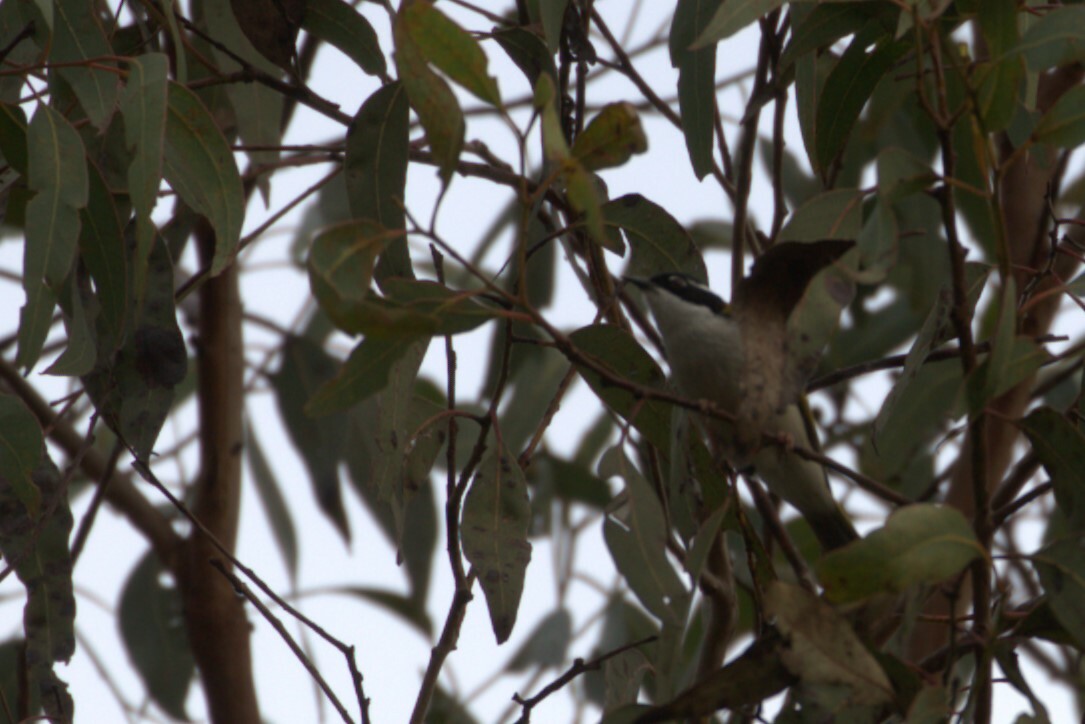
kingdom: Animalia
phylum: Chordata
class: Aves
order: Passeriformes
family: Meliphagidae
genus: Melithreptus
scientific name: Melithreptus albogularis
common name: White-throated honeyeater
